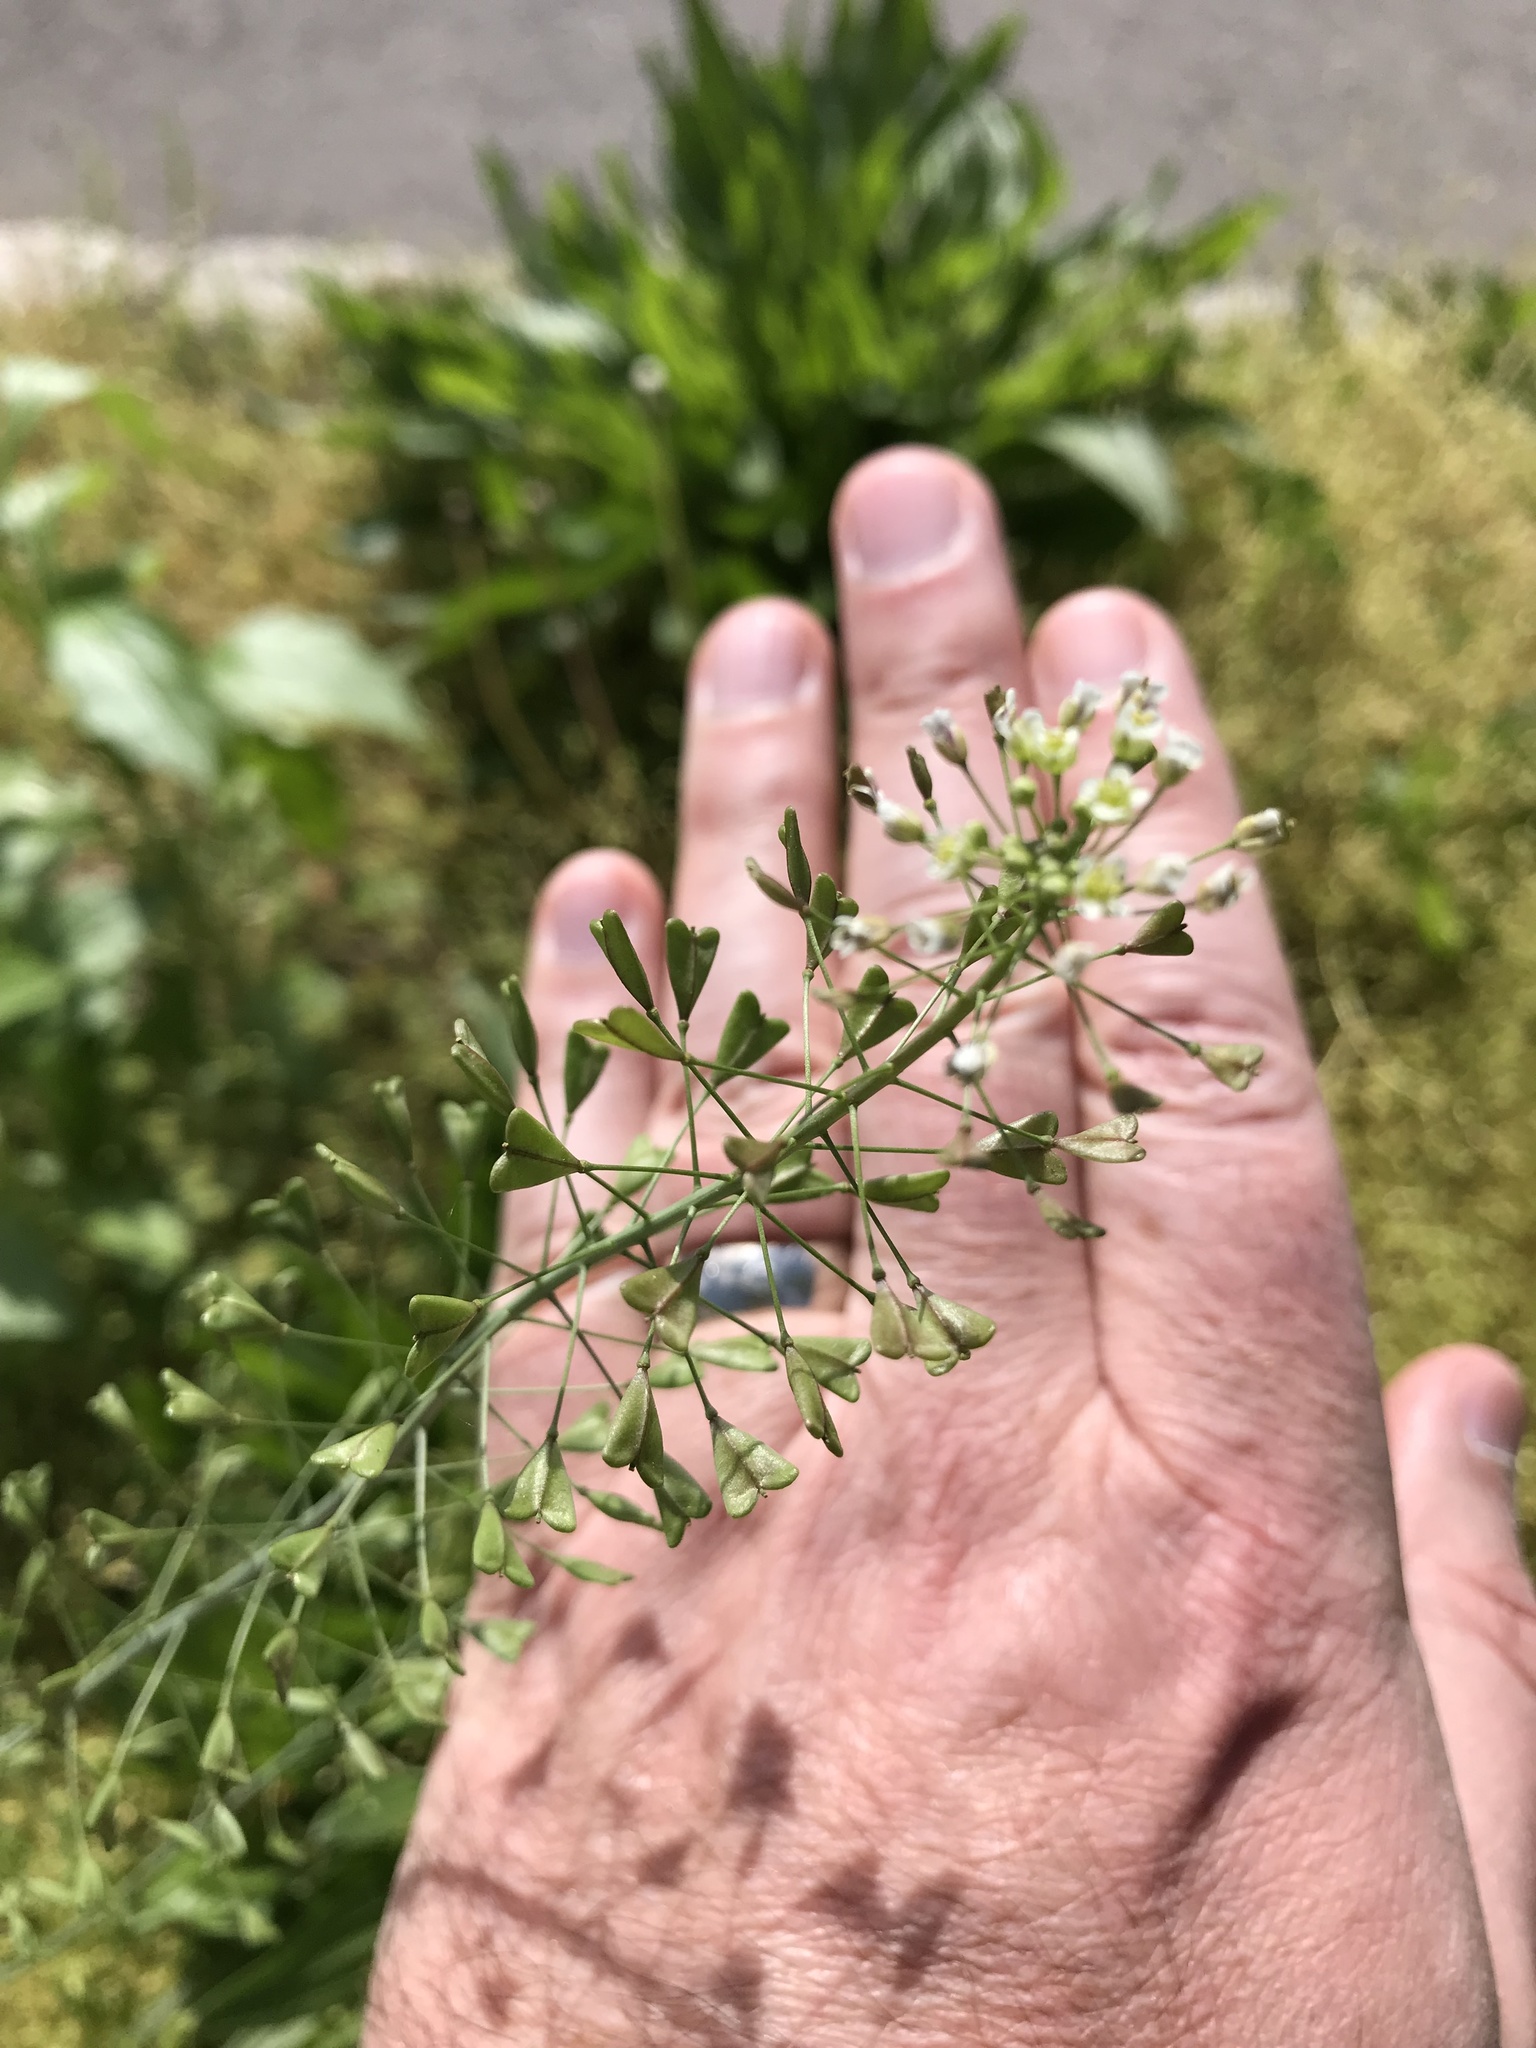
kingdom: Plantae
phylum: Tracheophyta
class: Magnoliopsida
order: Brassicales
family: Brassicaceae
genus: Capsella
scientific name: Capsella bursa-pastoris
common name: Shepherd's purse
